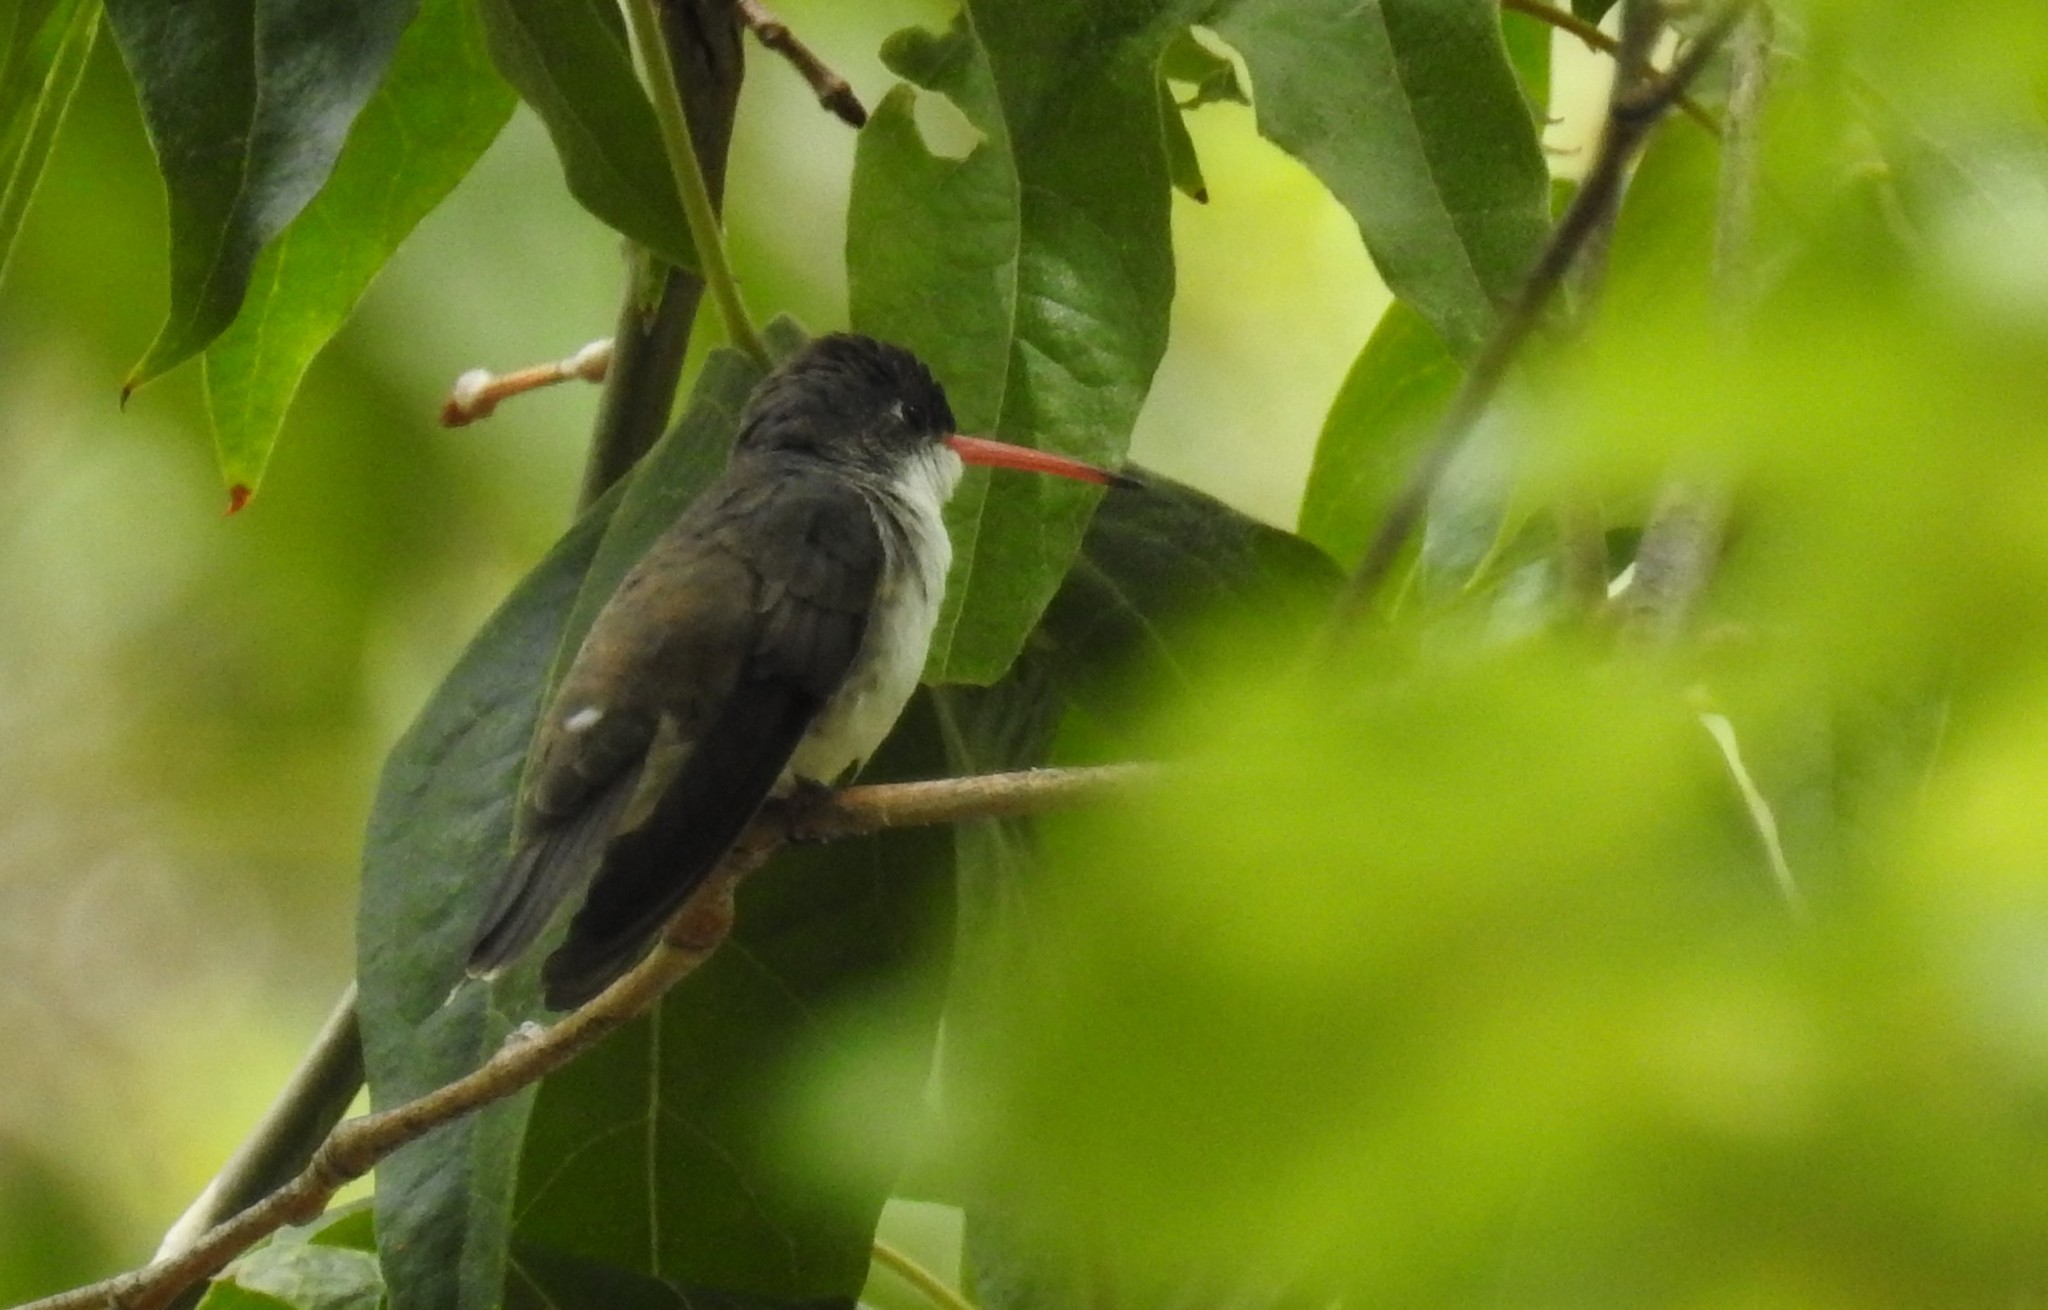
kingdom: Animalia
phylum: Chordata
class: Aves
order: Apodiformes
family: Trochilidae
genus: Leucolia
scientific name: Leucolia violiceps
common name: Violet-crowned hummingbird
